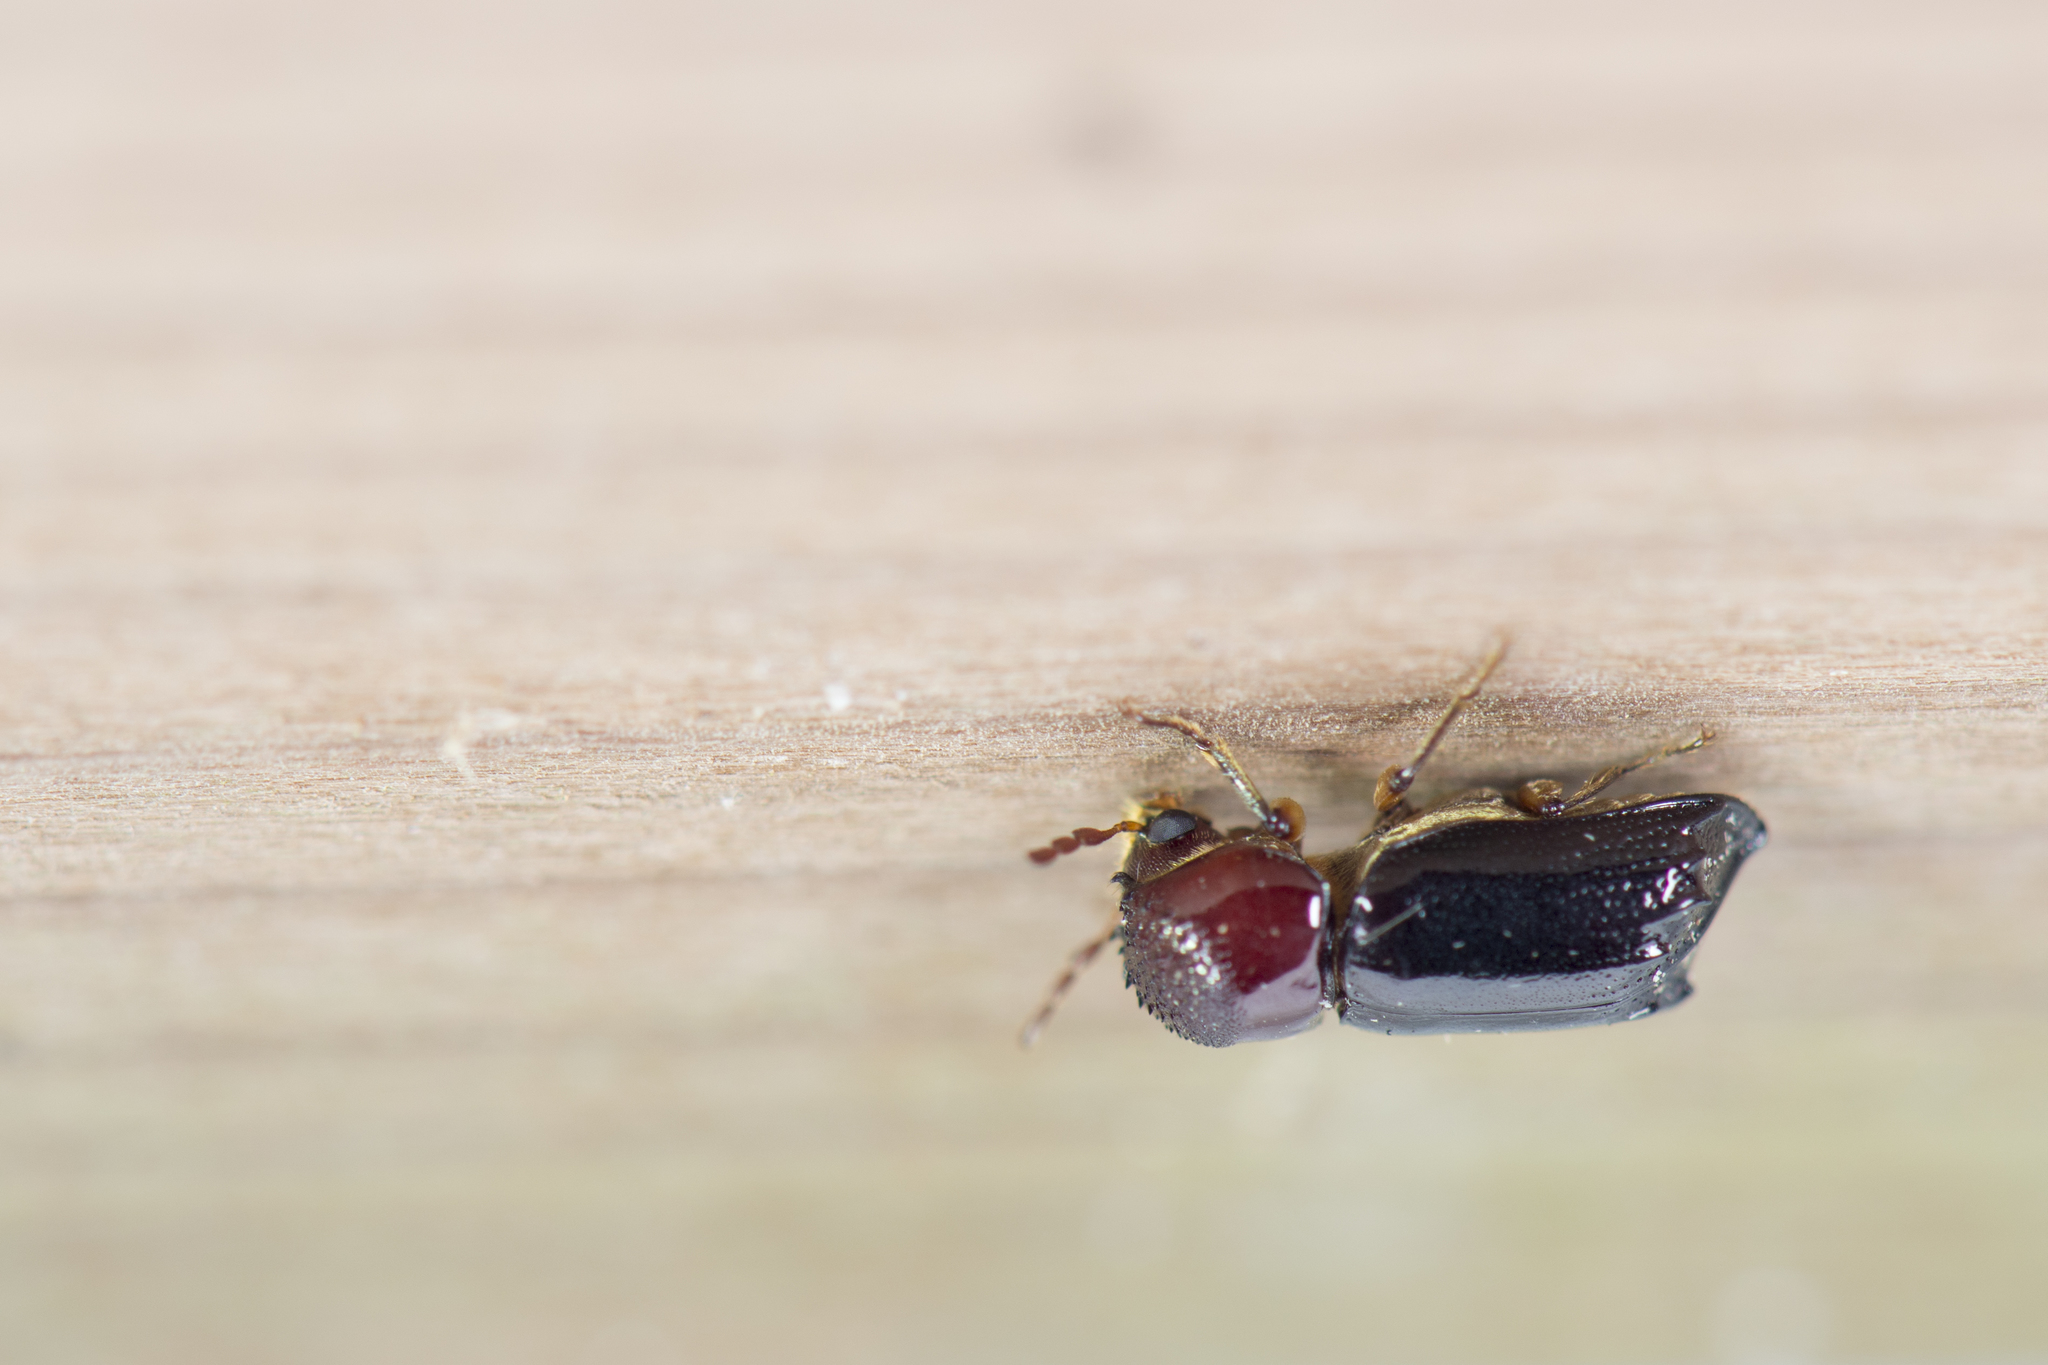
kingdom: Animalia
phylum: Arthropoda
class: Insecta
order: Coleoptera
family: Bostrichidae
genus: Xylothrips
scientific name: Xylothrips flavipes
